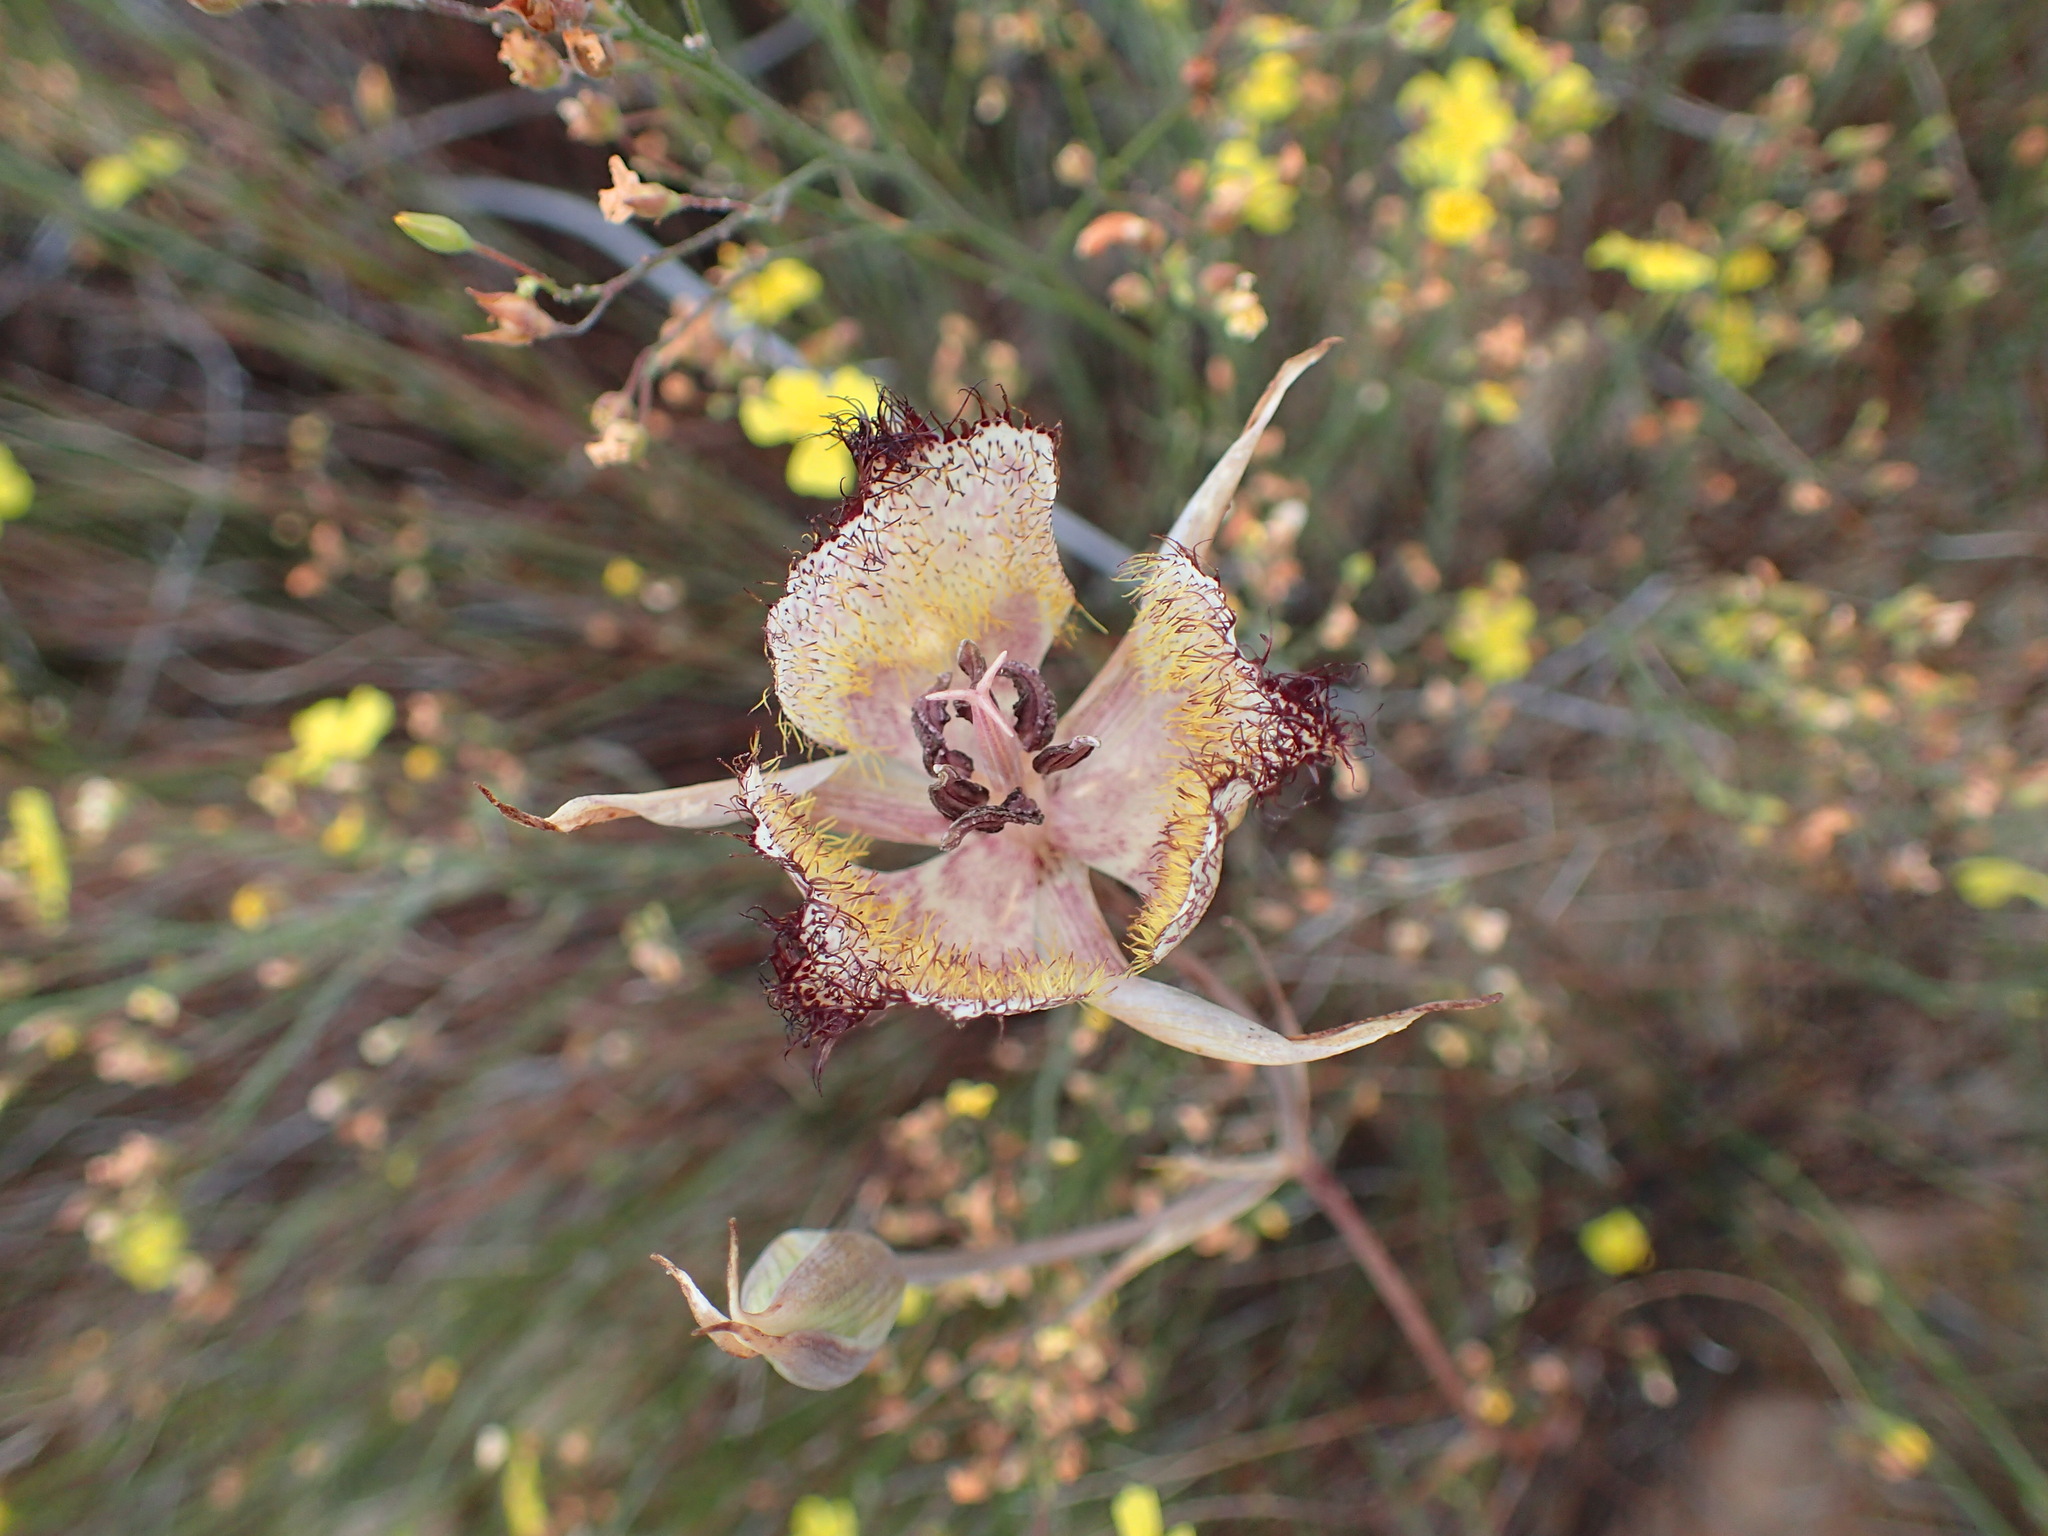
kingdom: Plantae
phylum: Tracheophyta
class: Liliopsida
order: Liliales
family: Liliaceae
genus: Calochortus
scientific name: Calochortus fimbriatus
